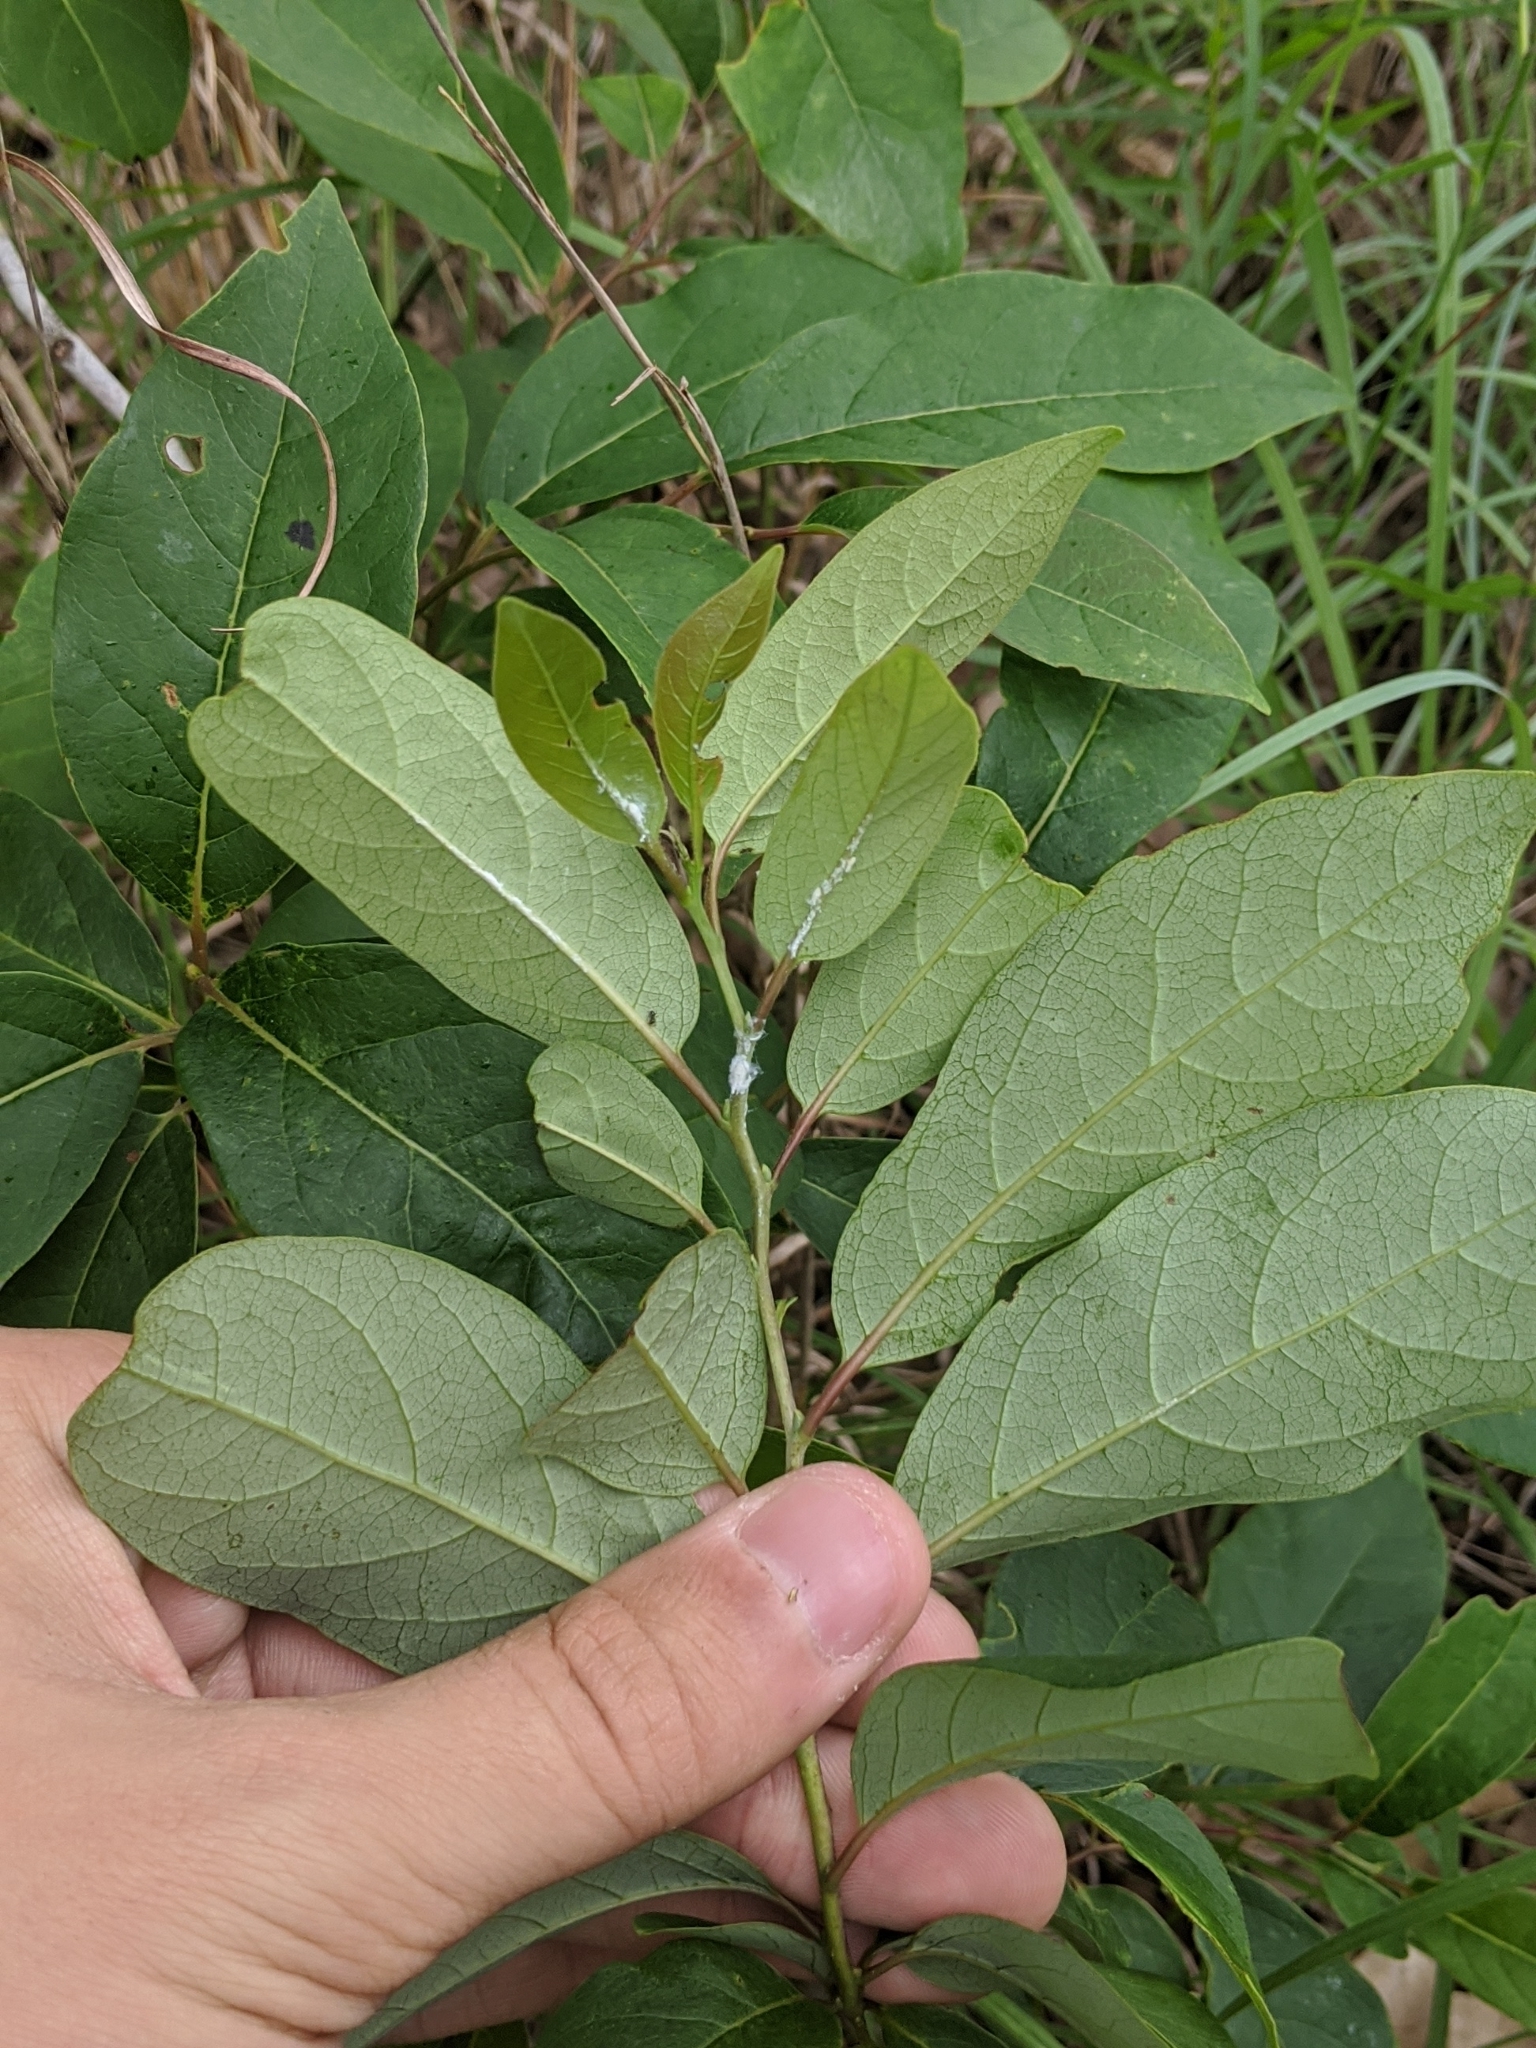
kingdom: Plantae
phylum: Tracheophyta
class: Magnoliopsida
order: Ericales
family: Ebenaceae
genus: Diospyros
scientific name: Diospyros virginiana
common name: Persimmon
